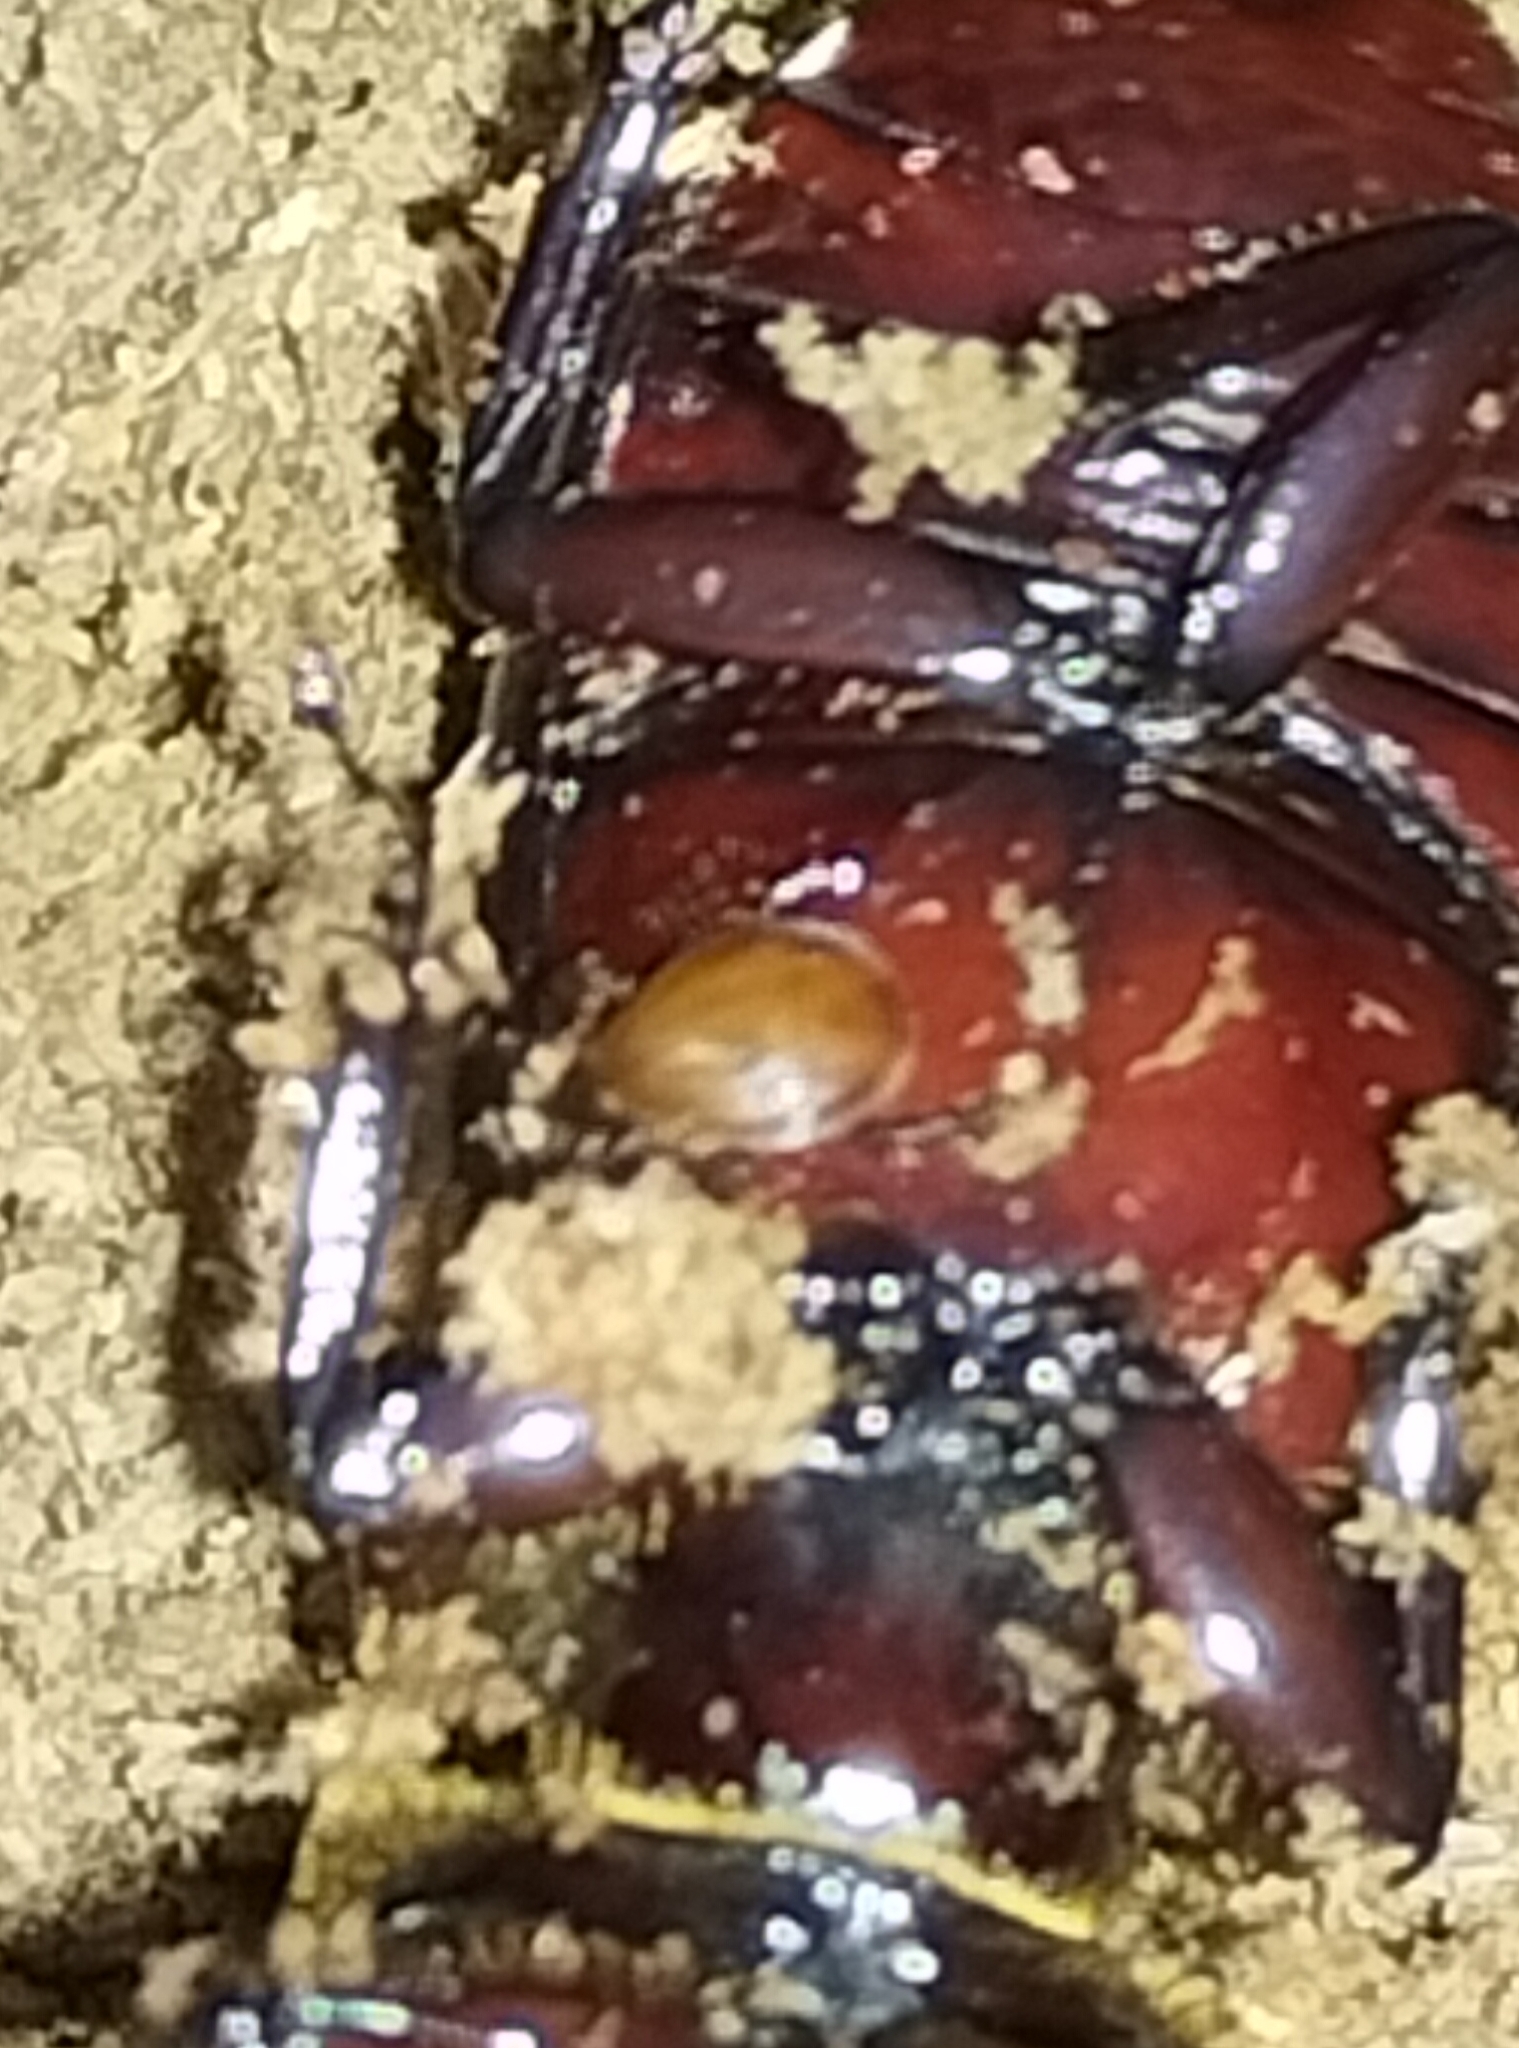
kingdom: Animalia
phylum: Arthropoda
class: Arachnida
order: Mesostigmata
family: Megisthanidae
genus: Megisthanus
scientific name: Megisthanus southcotti
